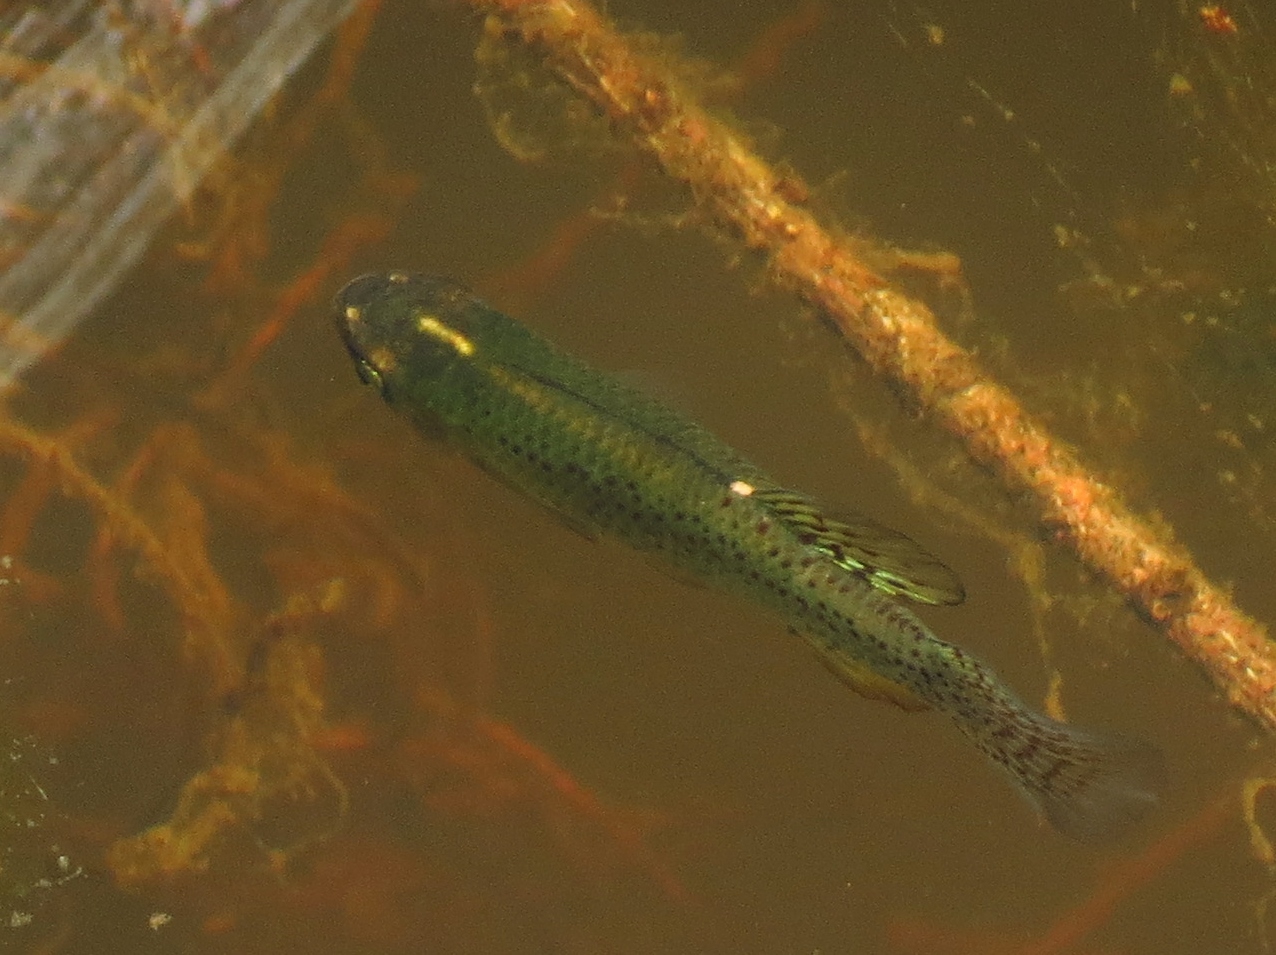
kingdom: Animalia
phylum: Chordata
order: Cyprinodontiformes
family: Fundulidae
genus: Fundulus
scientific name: Fundulus chrysotus
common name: Golden topminnow
